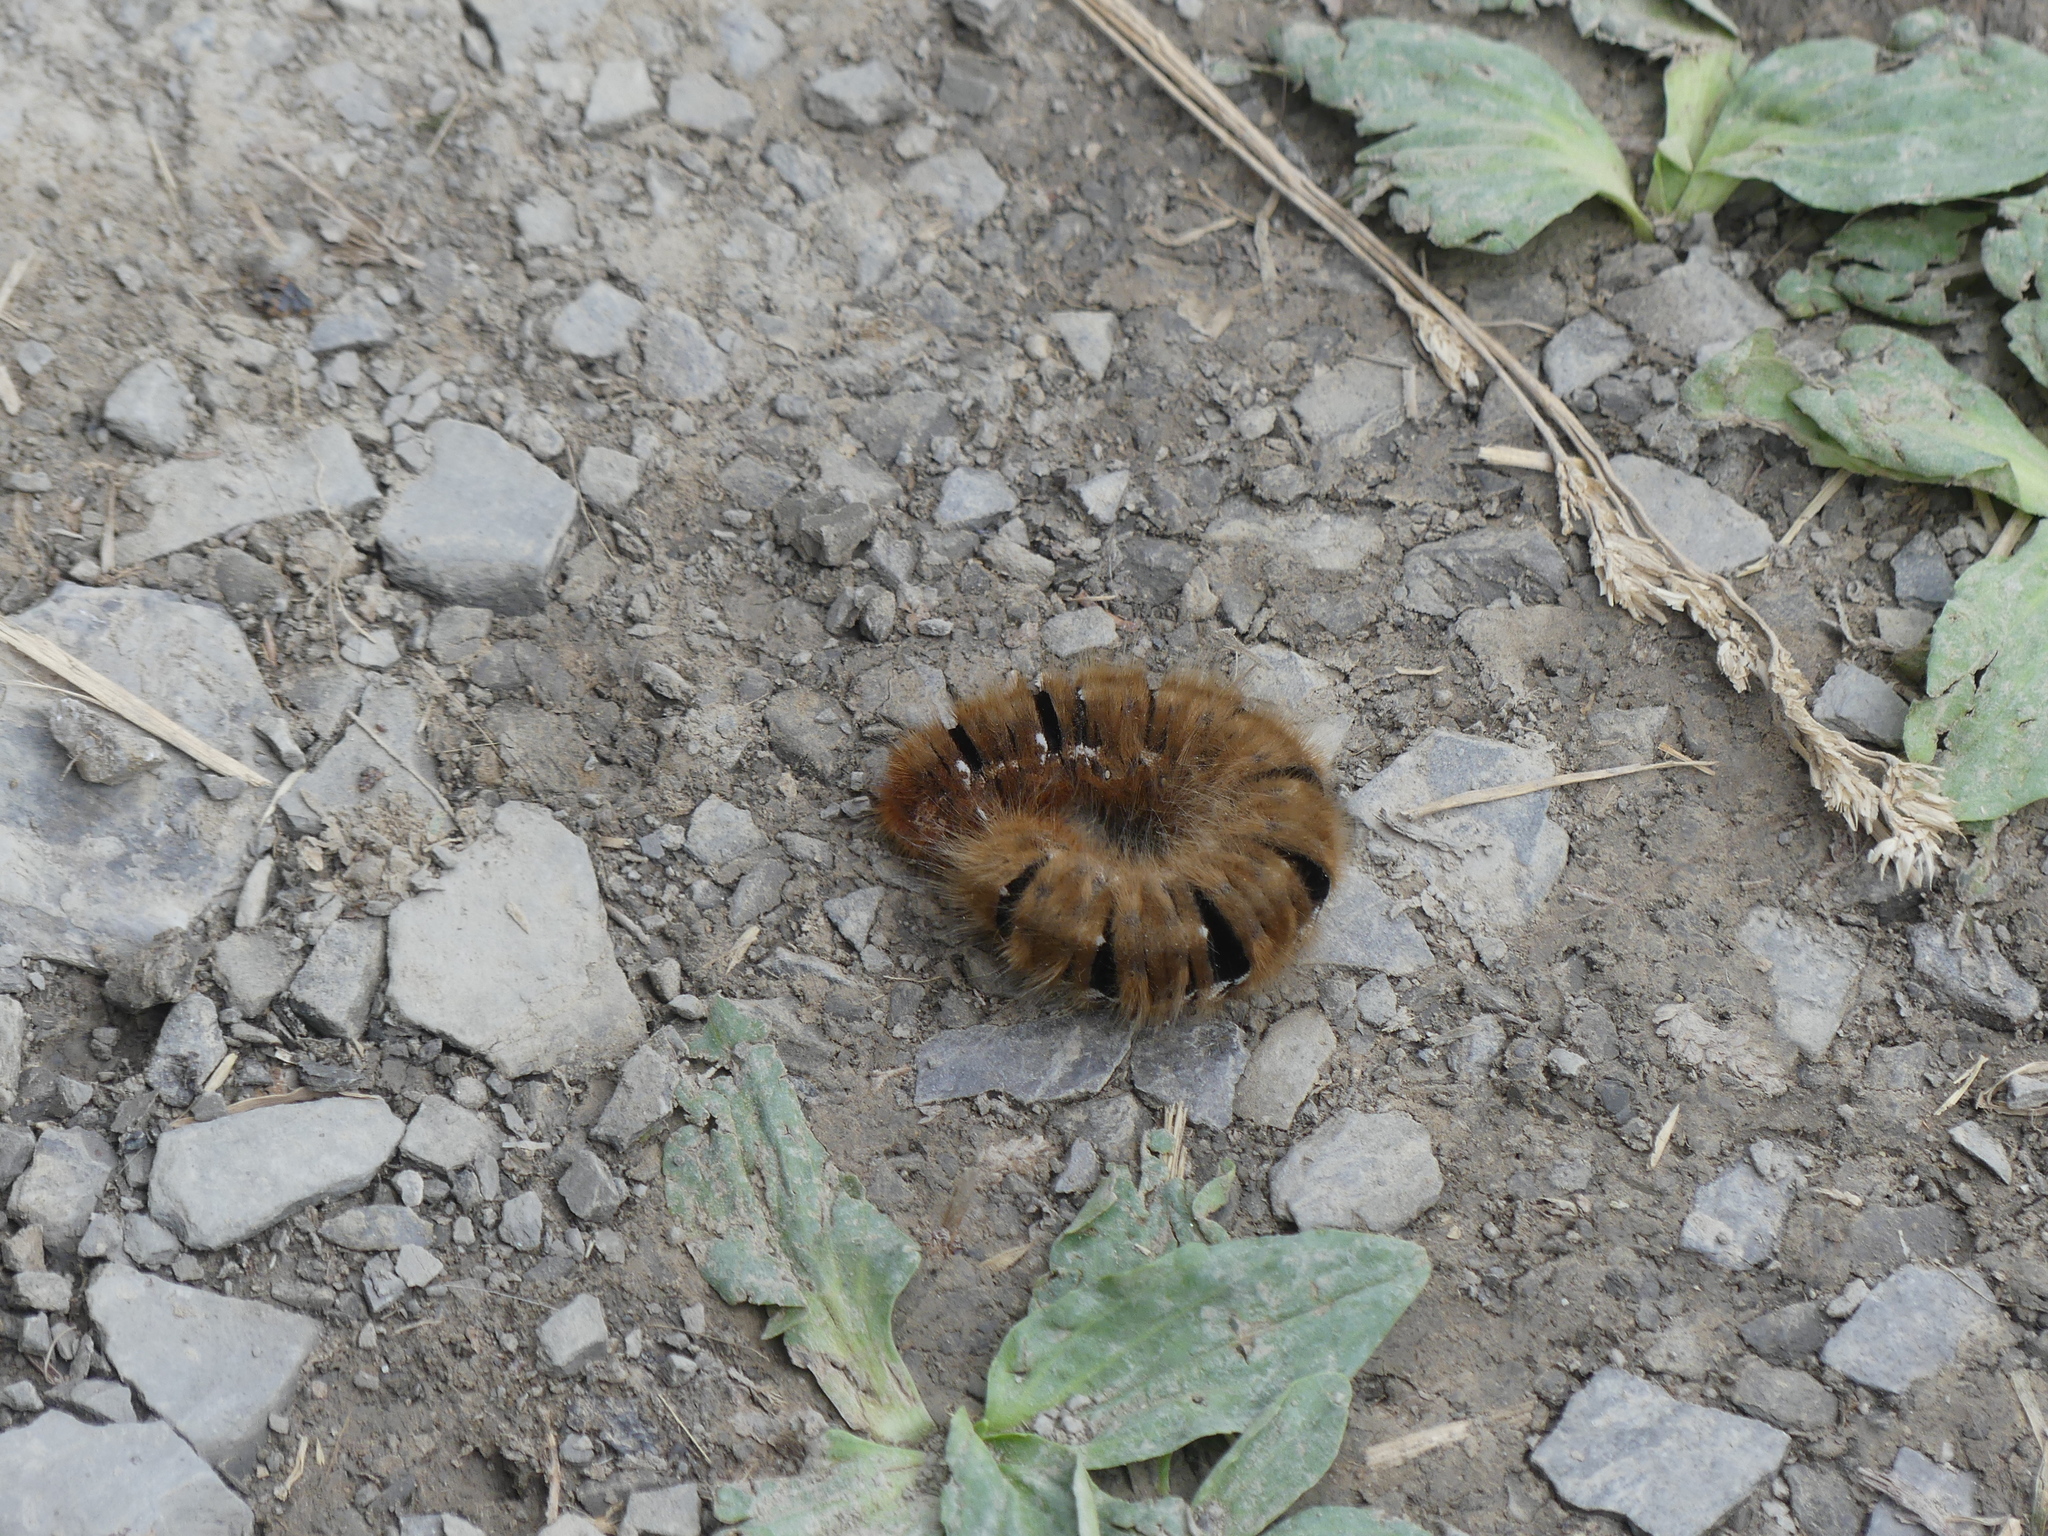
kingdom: Animalia
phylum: Arthropoda
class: Insecta
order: Lepidoptera
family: Lasiocampidae
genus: Lasiocampa
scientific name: Lasiocampa quercus
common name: Oak eggar
